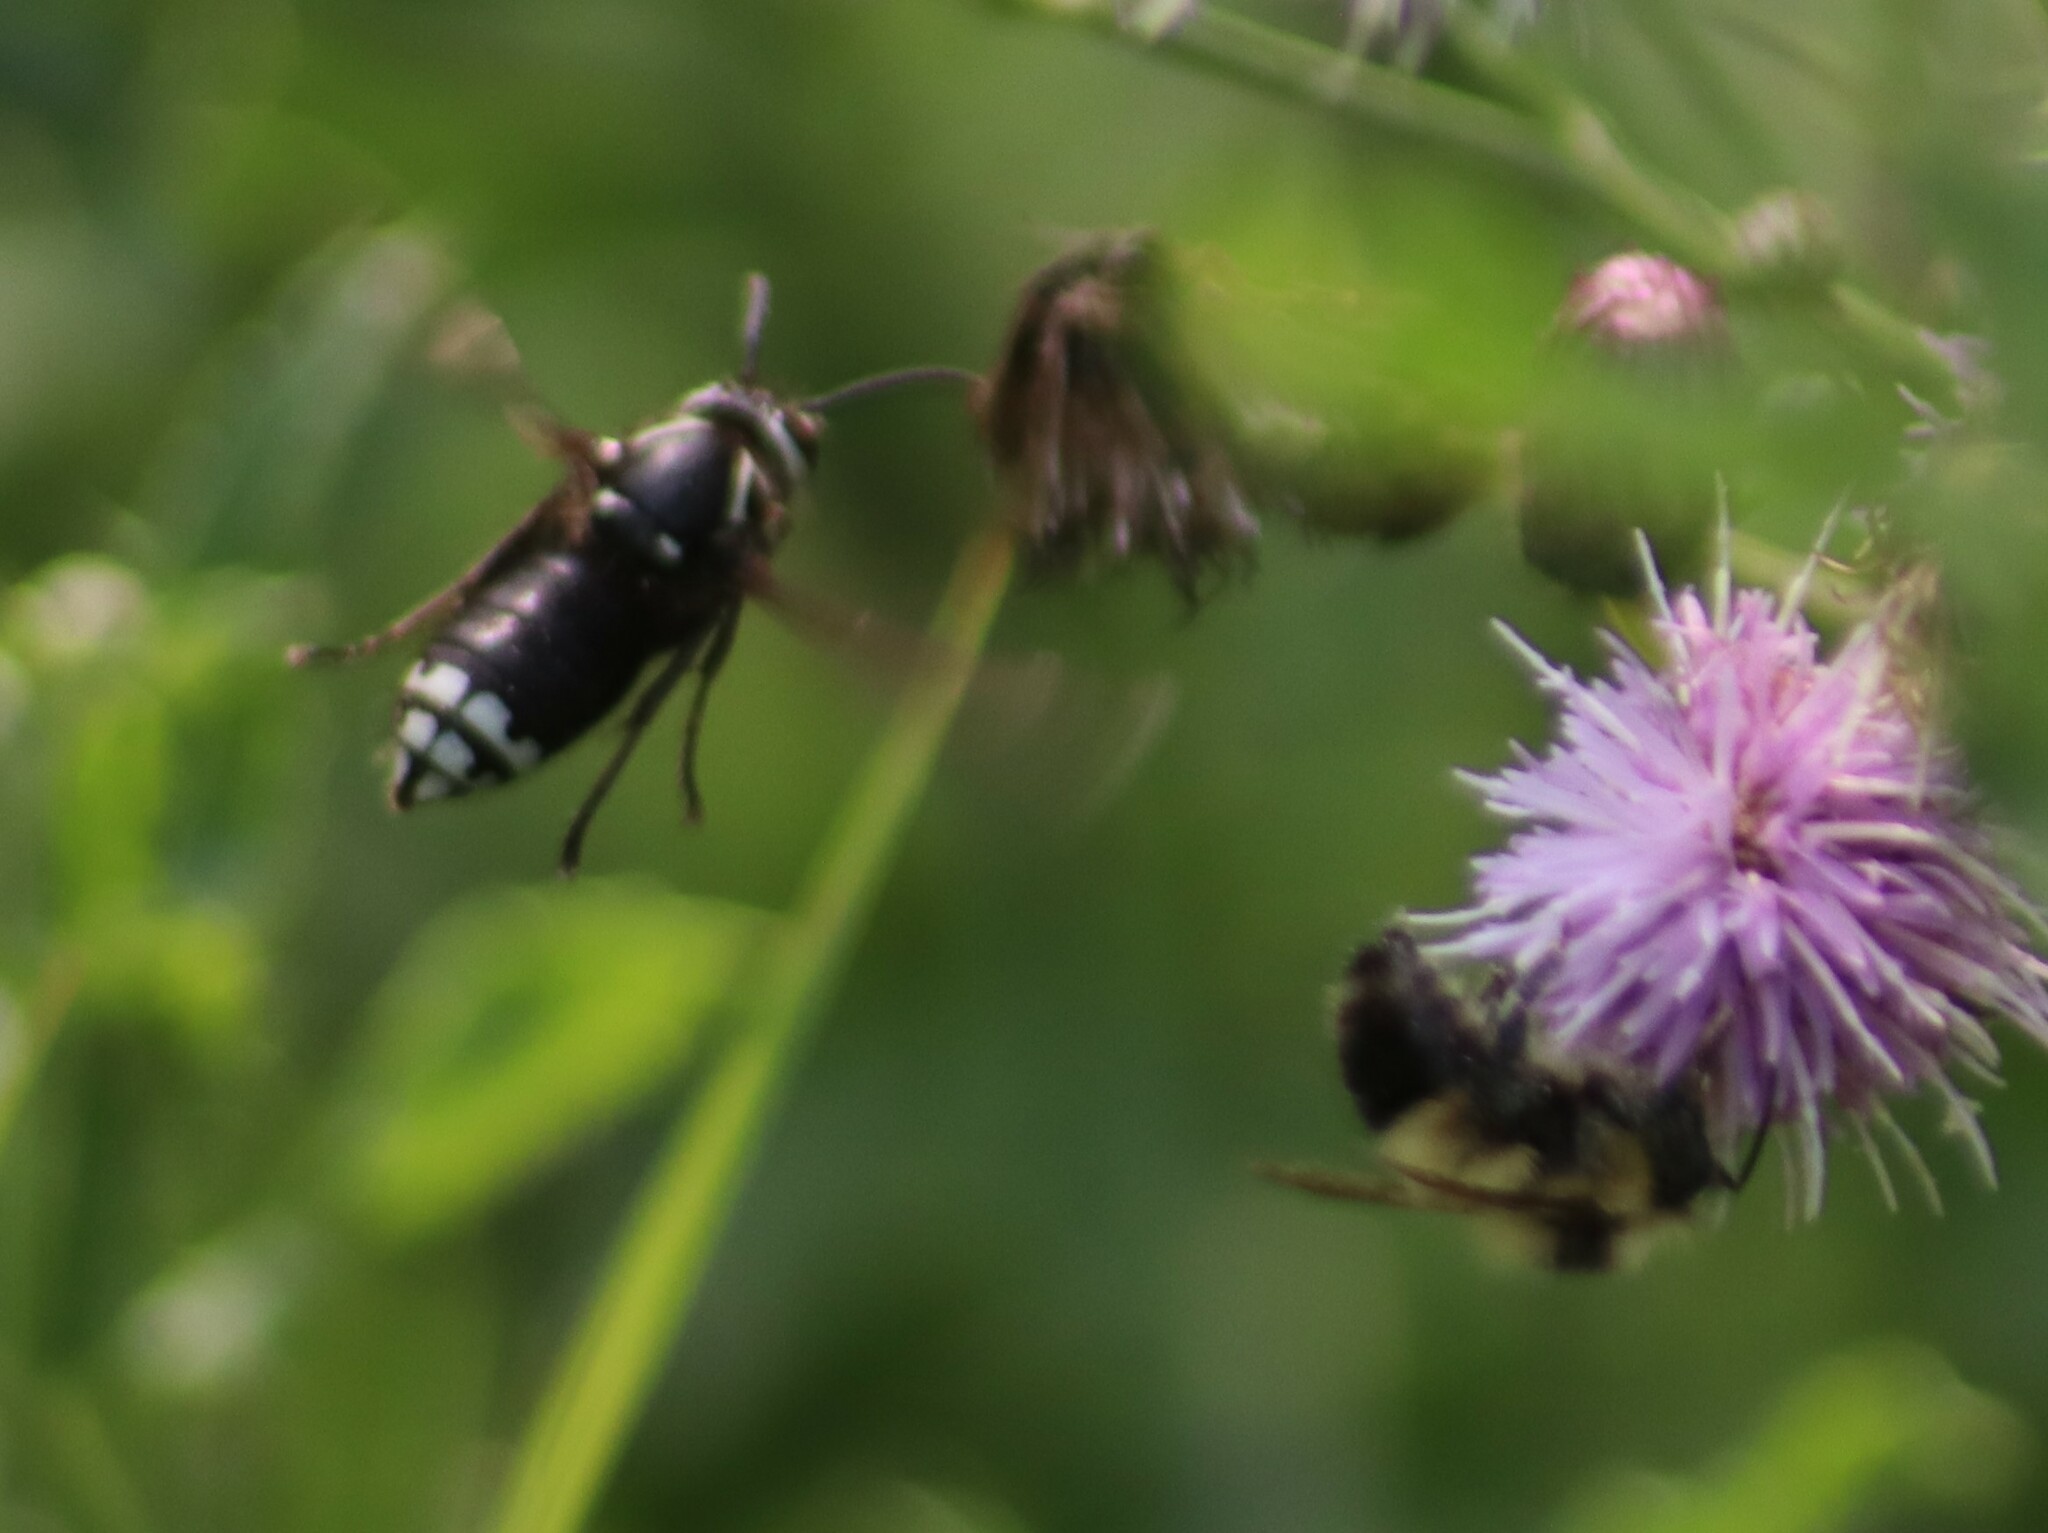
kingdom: Animalia
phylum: Arthropoda
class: Insecta
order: Hymenoptera
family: Vespidae
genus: Dolichovespula
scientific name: Dolichovespula maculata
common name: Bald-faced hornet
